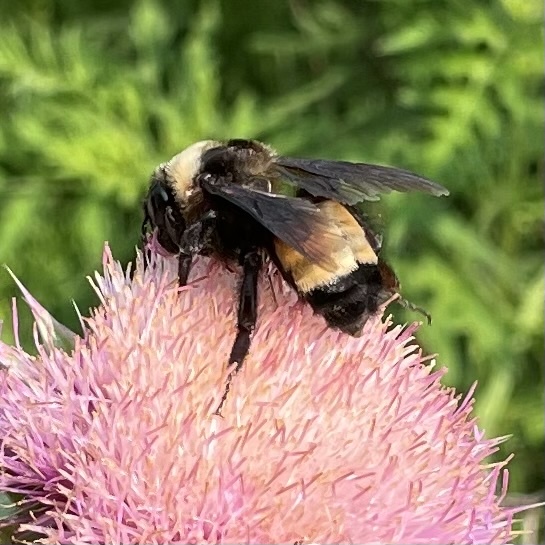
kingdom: Animalia
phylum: Arthropoda
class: Insecta
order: Hymenoptera
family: Apidae
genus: Bombus
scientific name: Bombus auricomus
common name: Black and gold bumble bee
